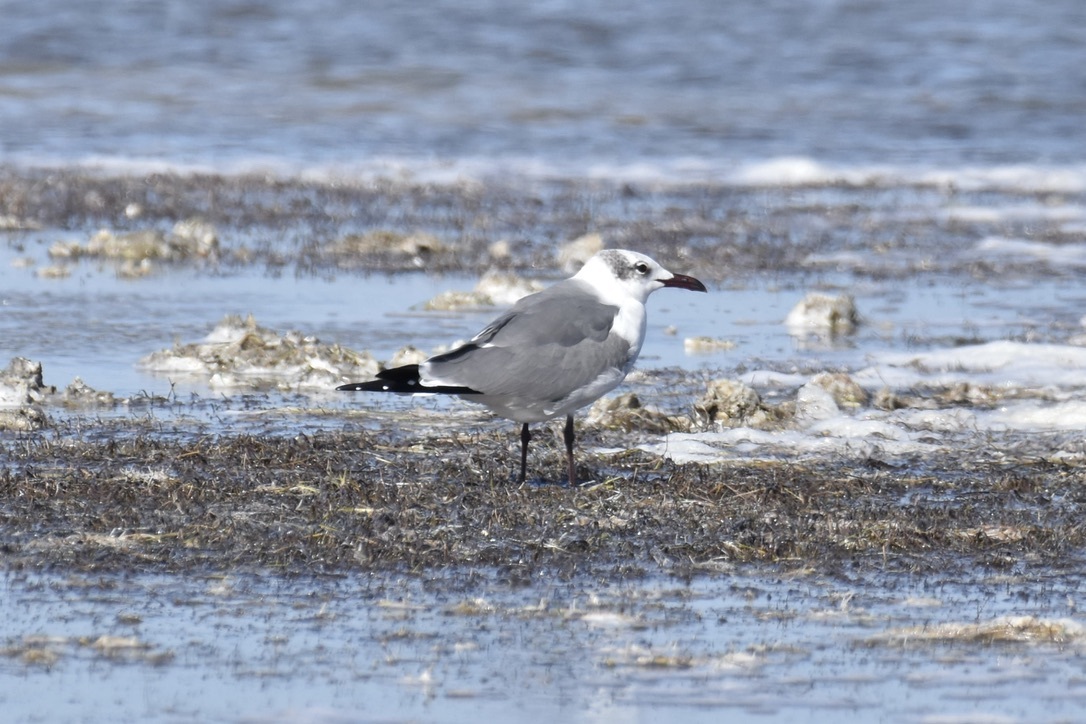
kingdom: Animalia
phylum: Chordata
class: Aves
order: Charadriiformes
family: Laridae
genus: Leucophaeus
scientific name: Leucophaeus atricilla
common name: Laughing gull
